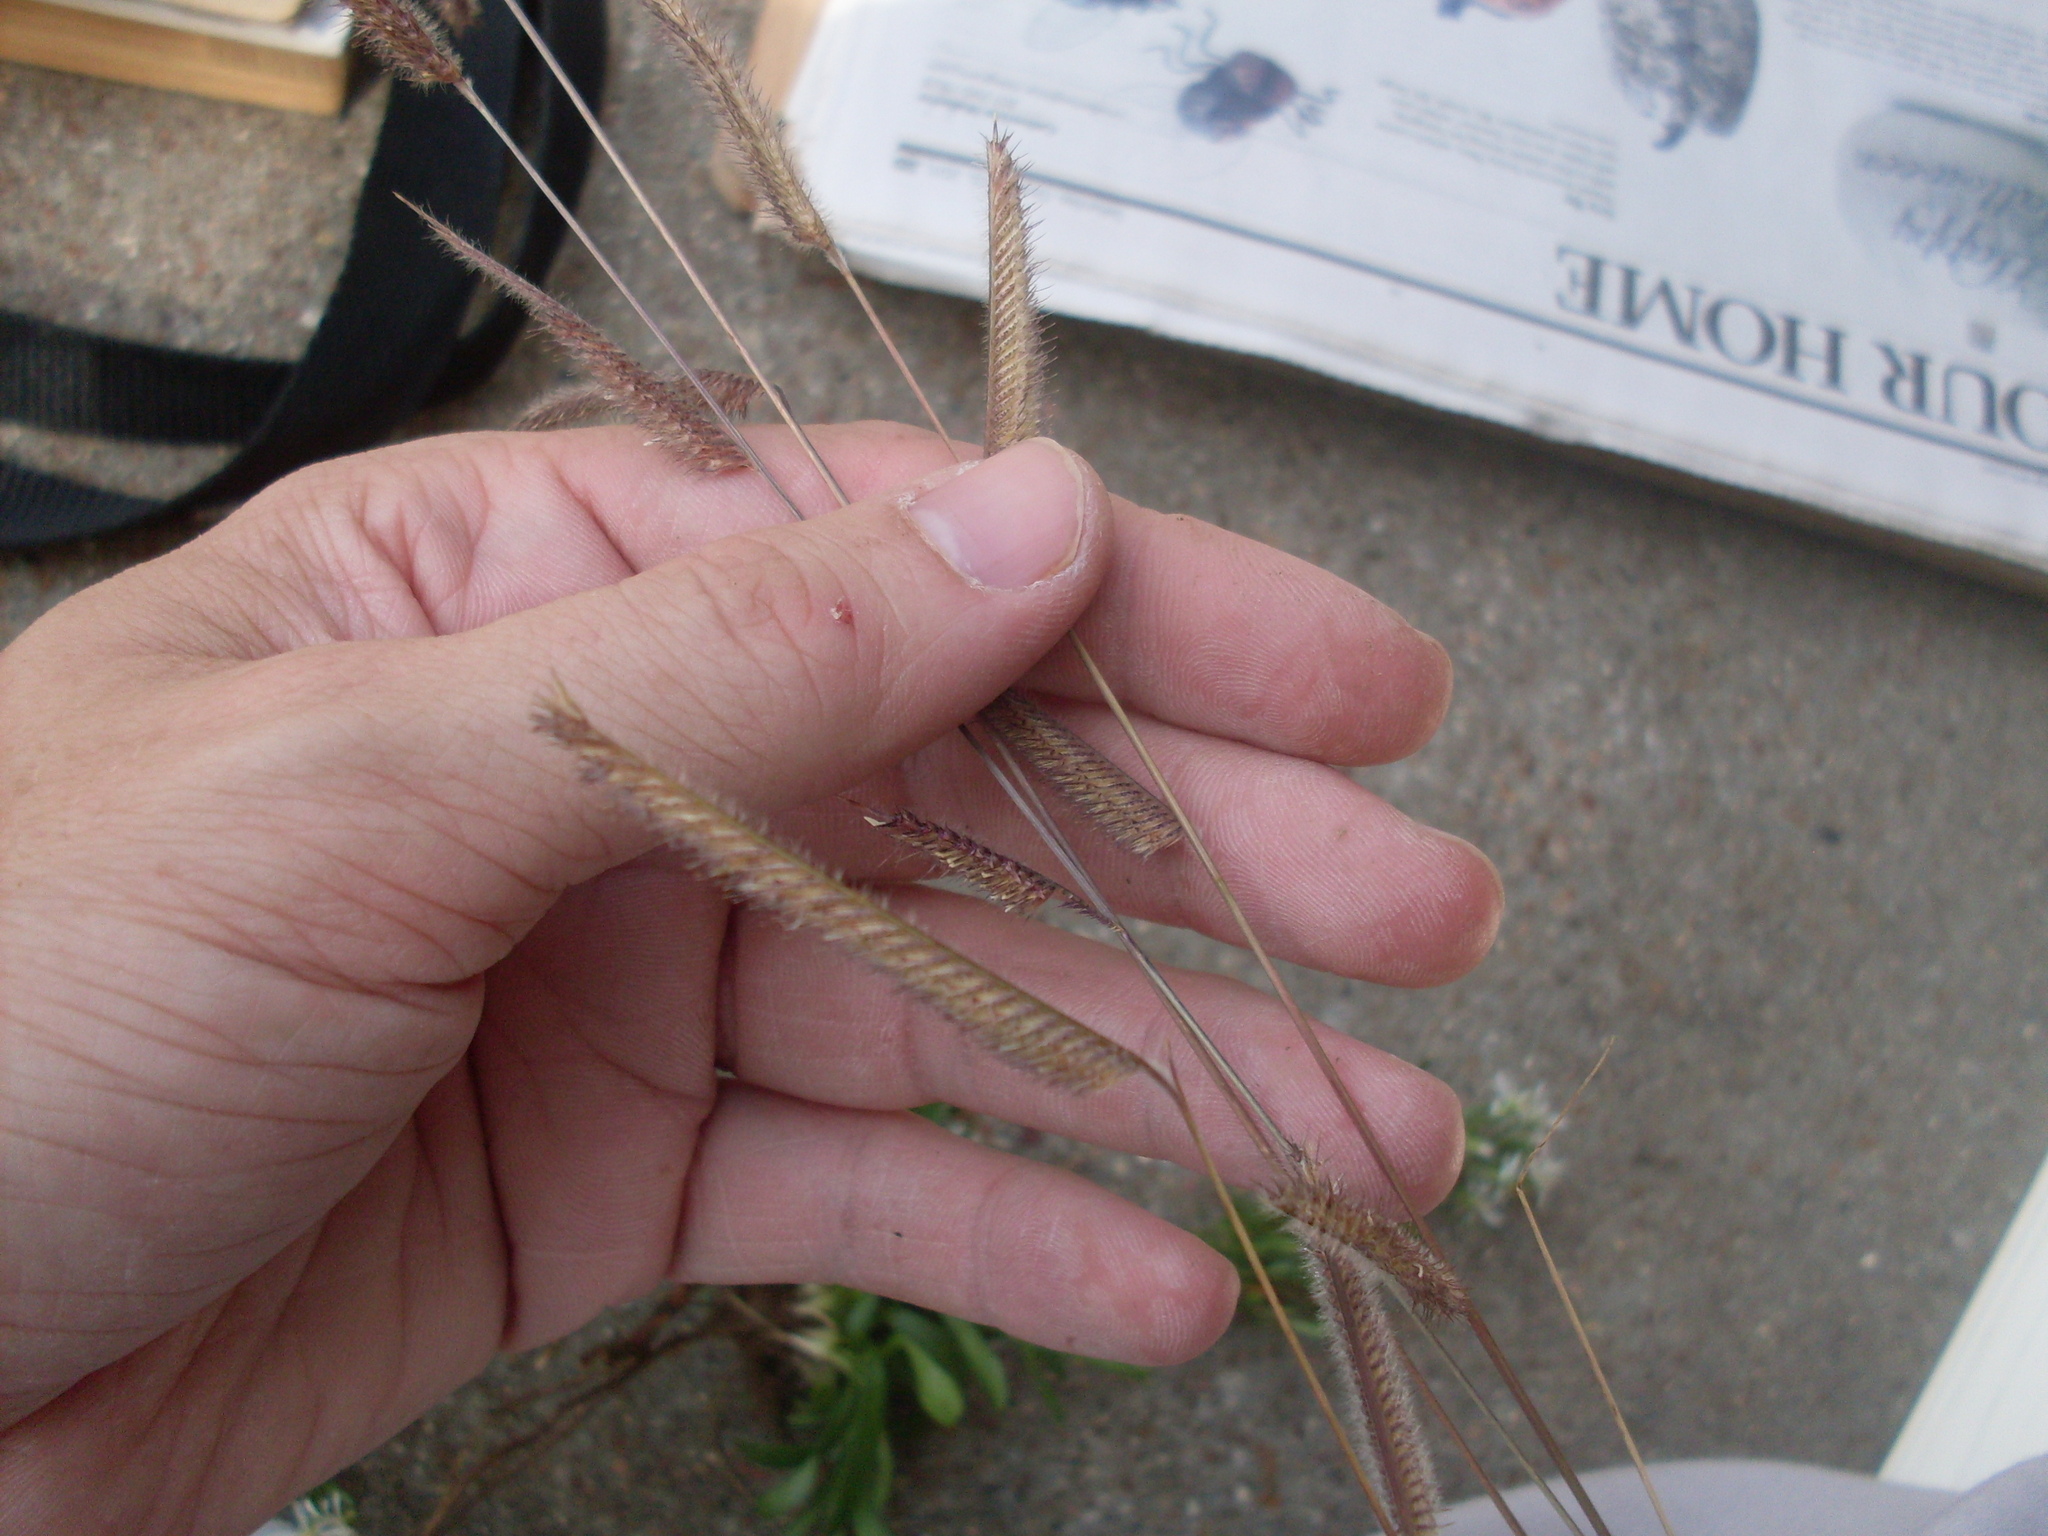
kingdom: Plantae
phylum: Tracheophyta
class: Liliopsida
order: Poales
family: Poaceae
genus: Bouteloua
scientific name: Bouteloua pectinata
